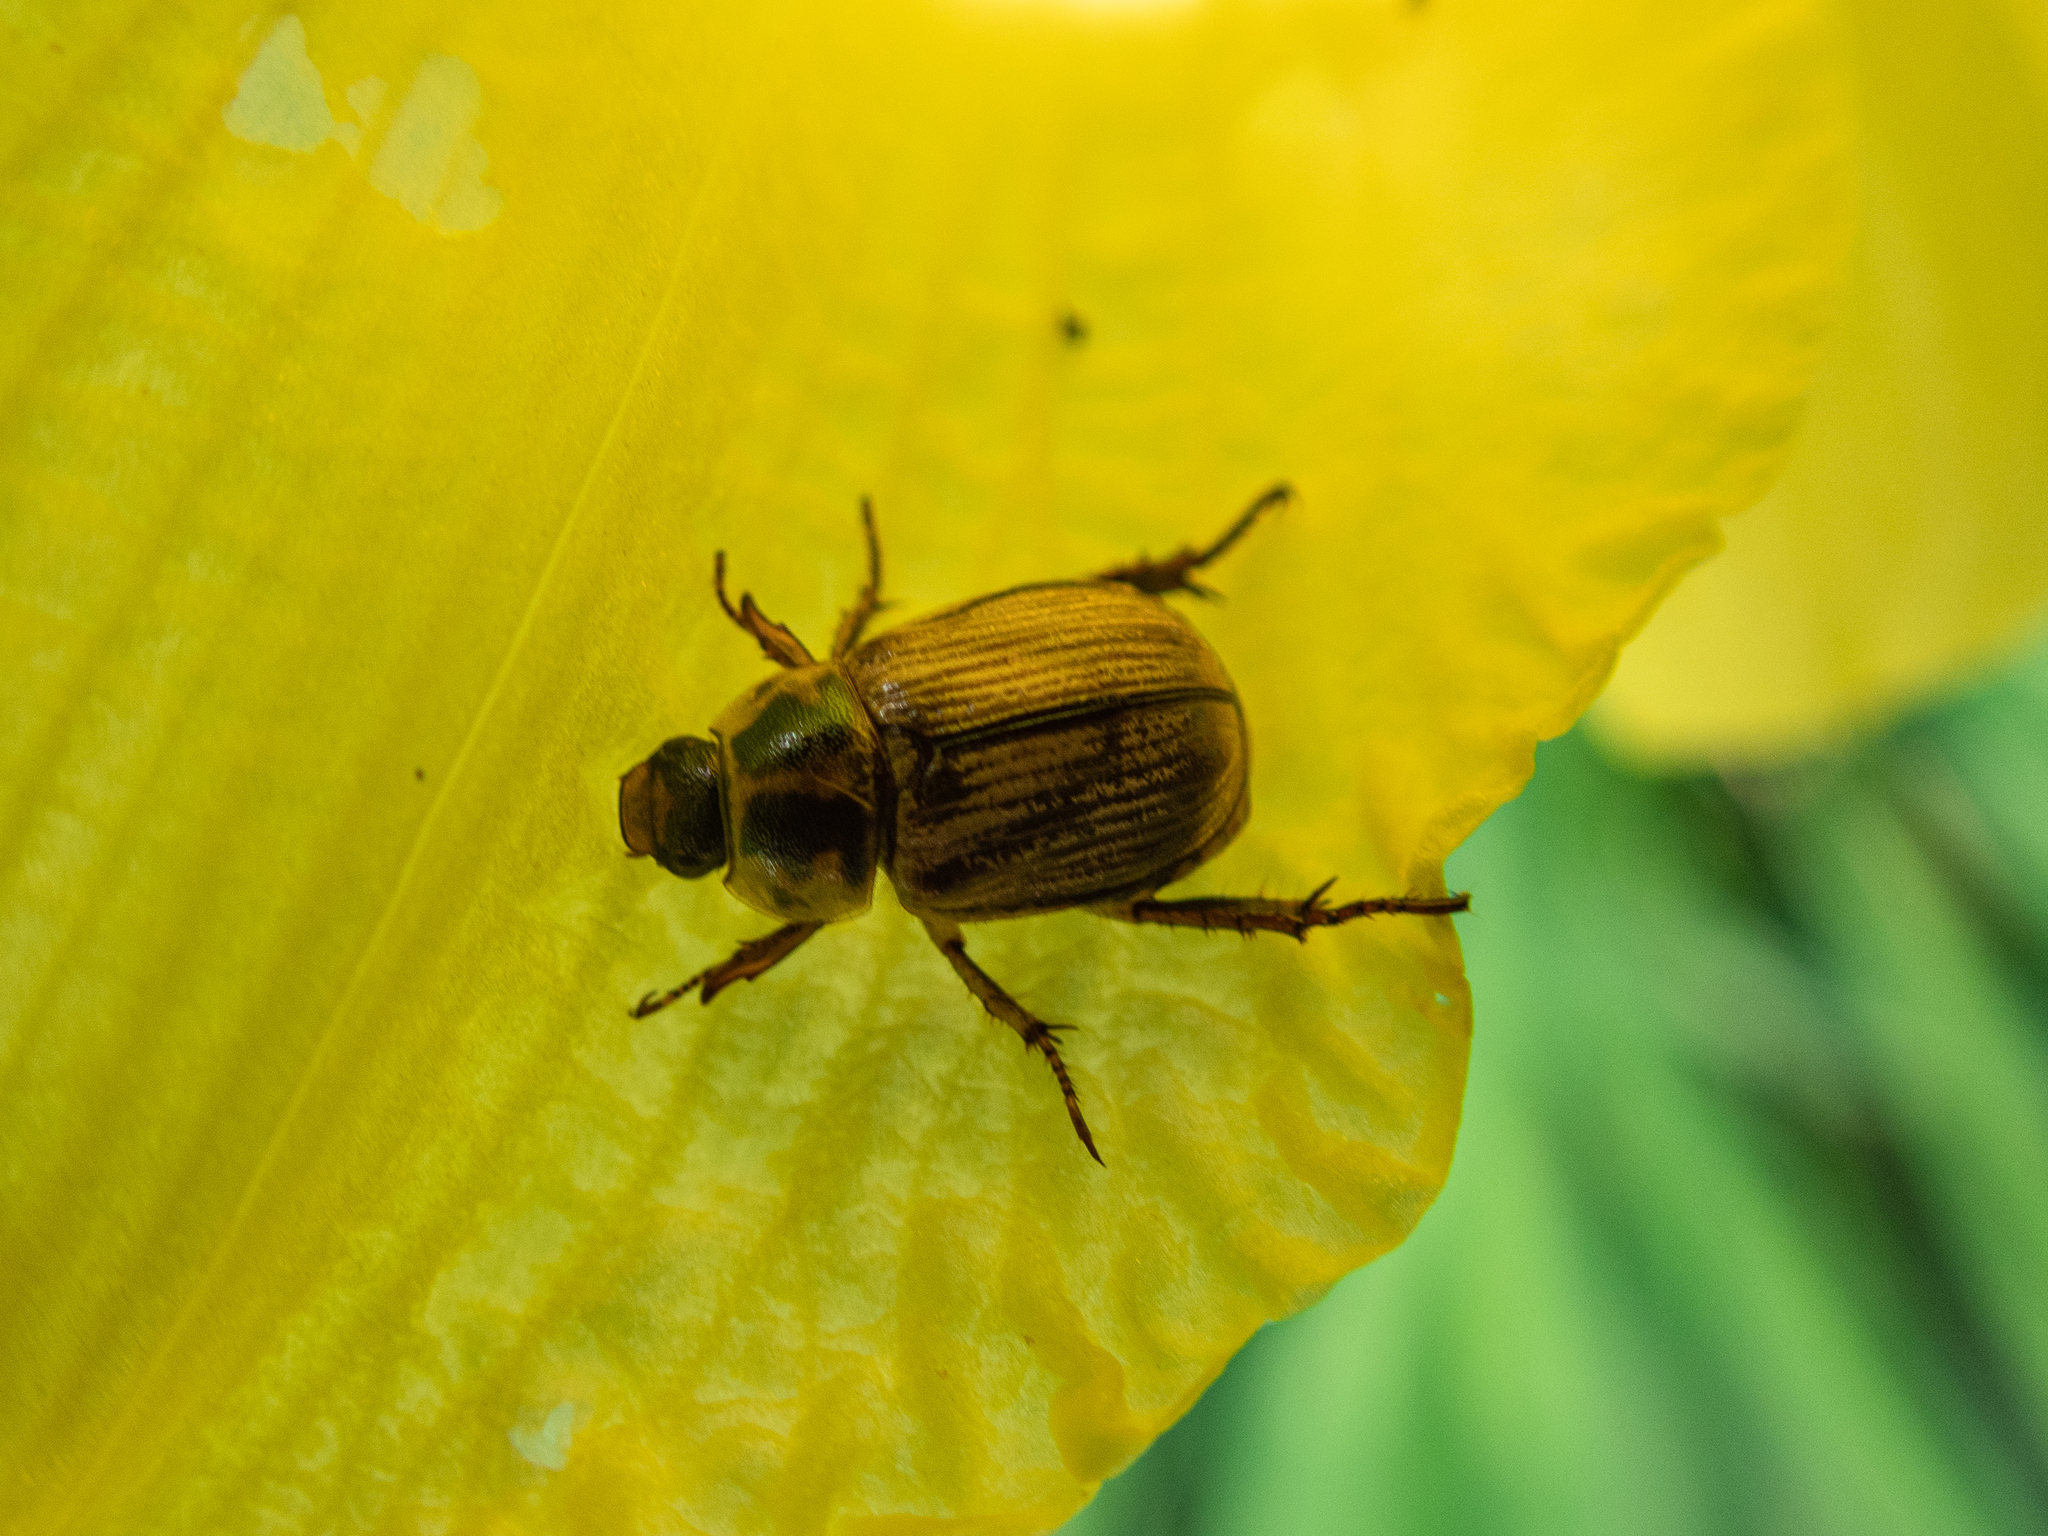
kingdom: Animalia
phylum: Arthropoda
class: Insecta
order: Coleoptera
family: Scarabaeidae
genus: Exomala
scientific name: Exomala orientalis
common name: Oriental beetle
